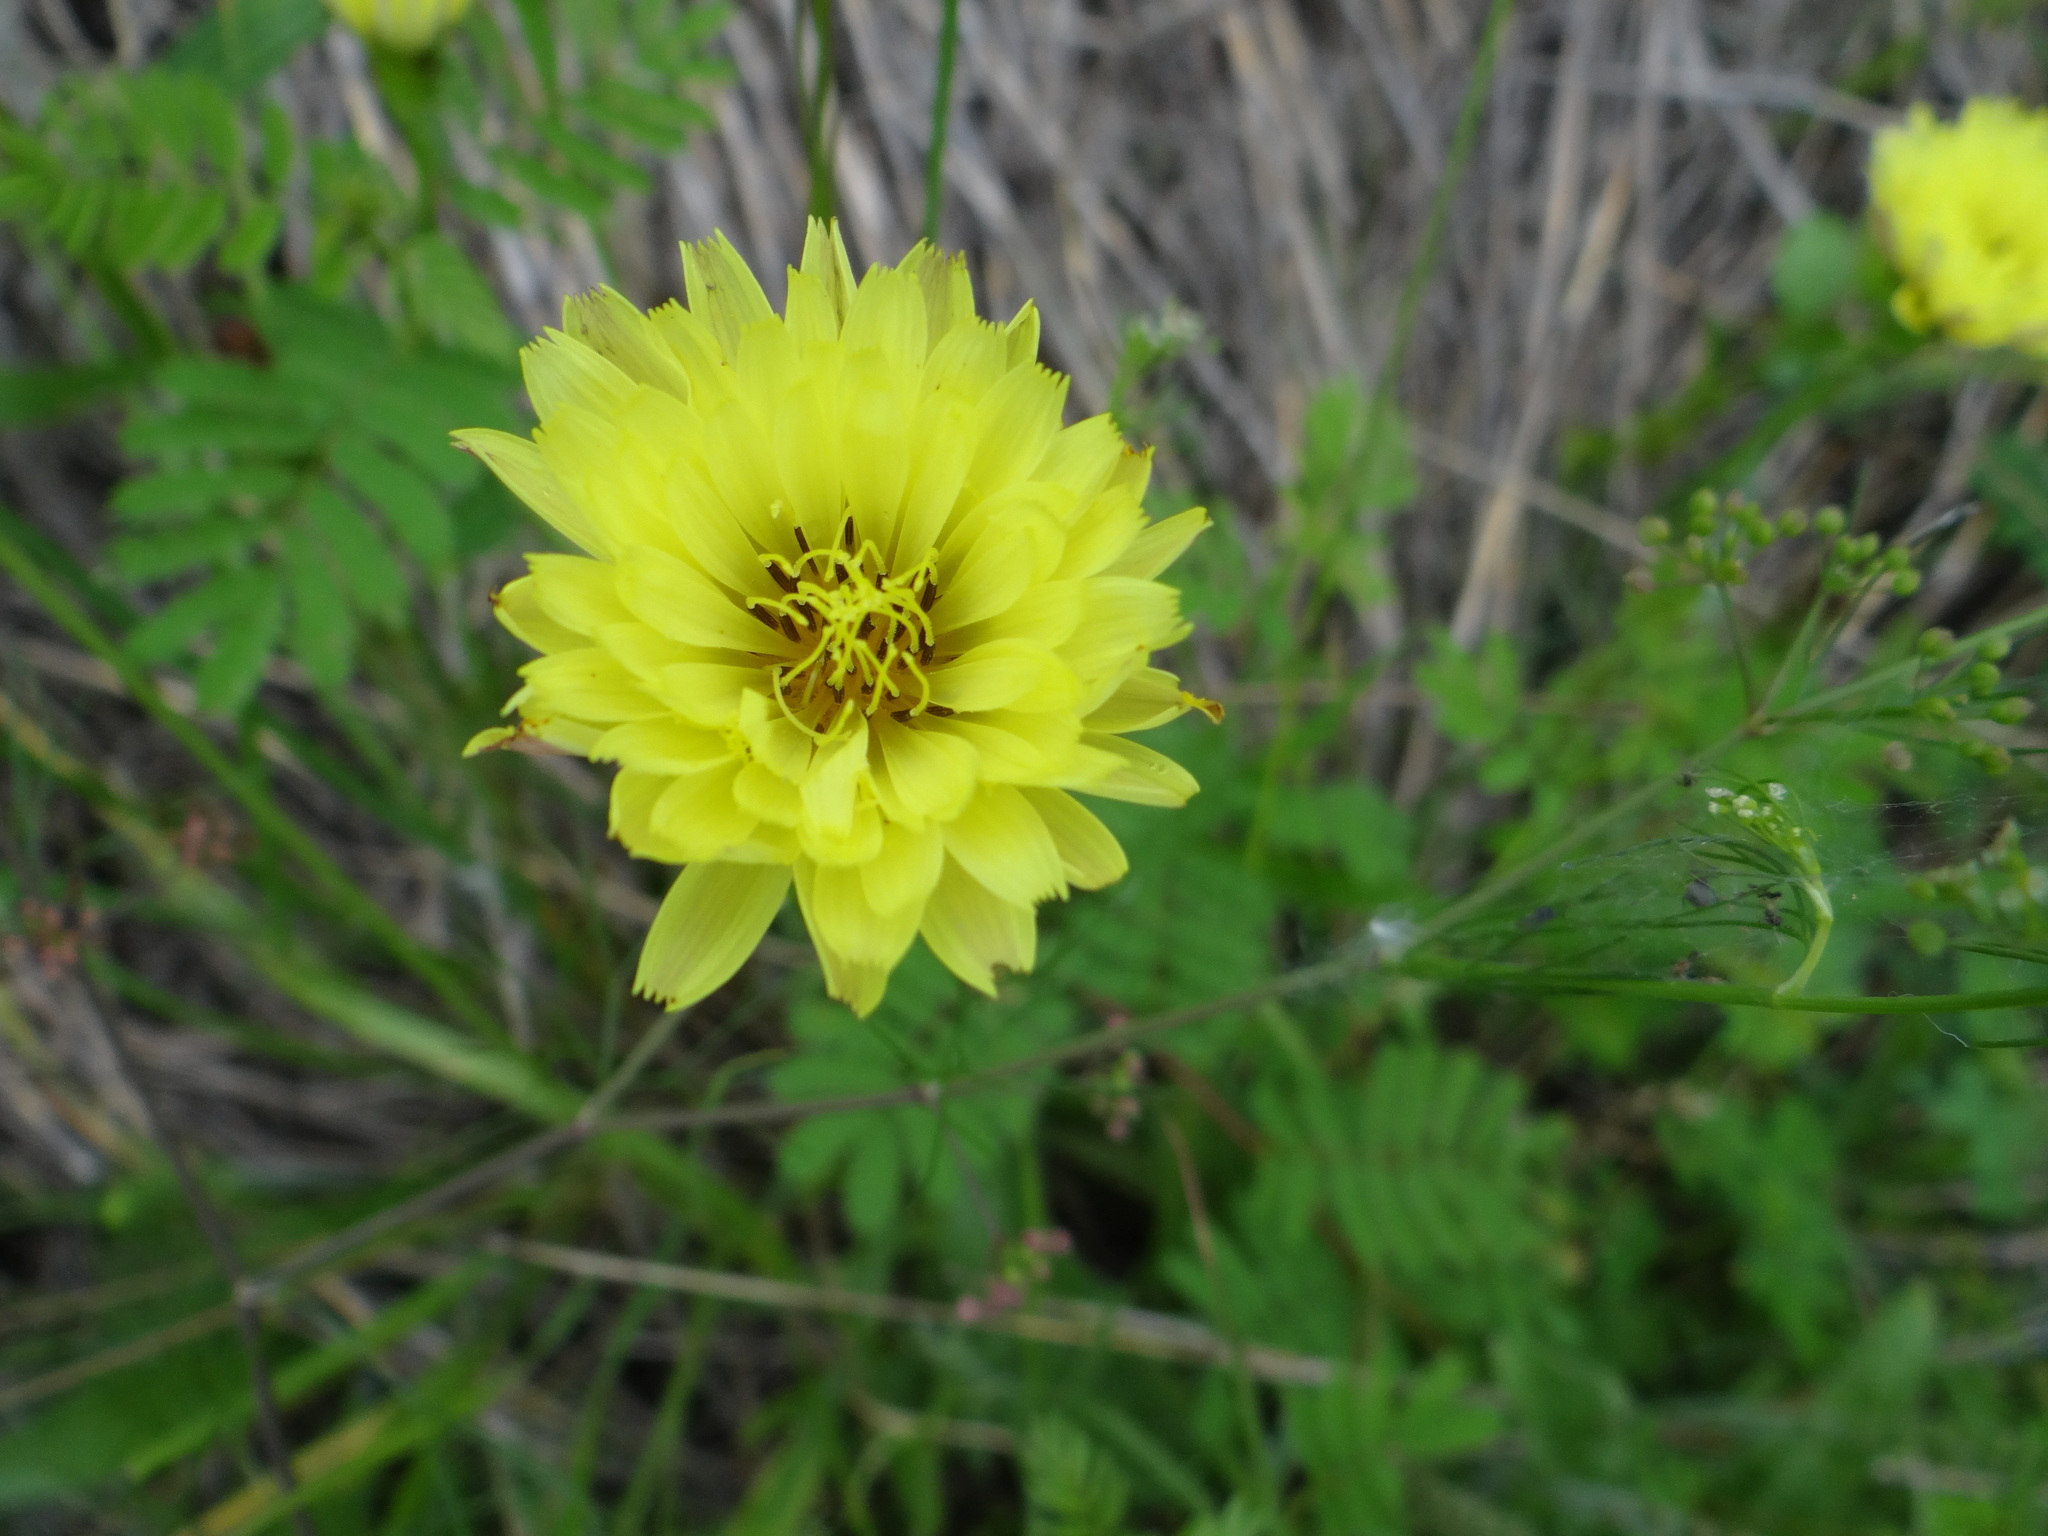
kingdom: Plantae
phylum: Tracheophyta
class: Magnoliopsida
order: Asterales
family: Asteraceae
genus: Pyrrhopappus
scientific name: Pyrrhopappus pauciflorus
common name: Texas false dandelion
